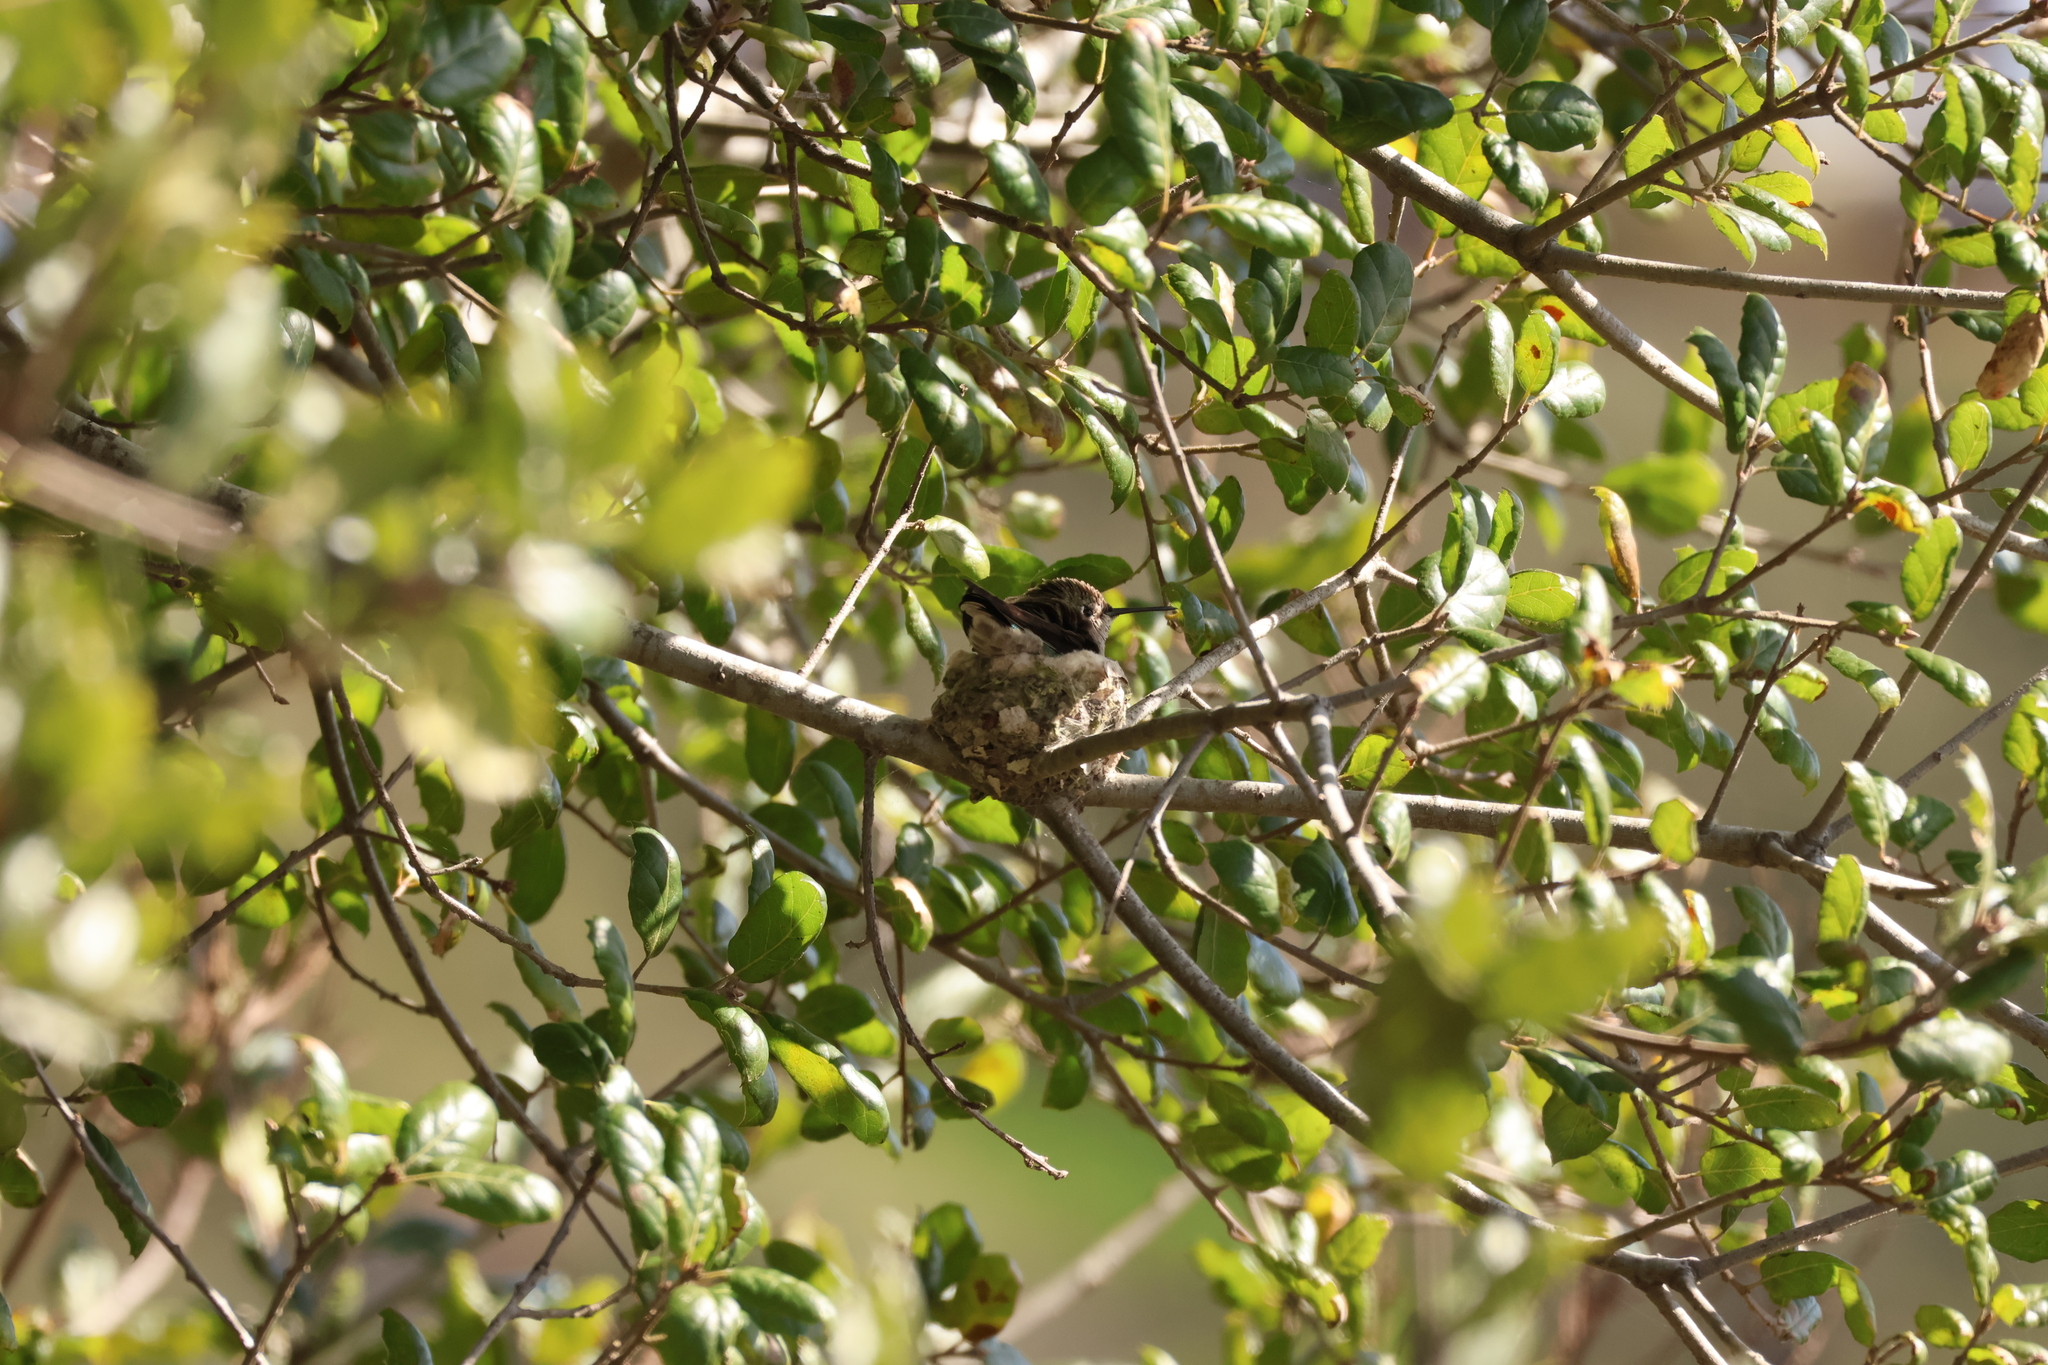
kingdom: Animalia
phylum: Chordata
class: Aves
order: Apodiformes
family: Trochilidae
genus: Calypte
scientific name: Calypte anna
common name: Anna's hummingbird
